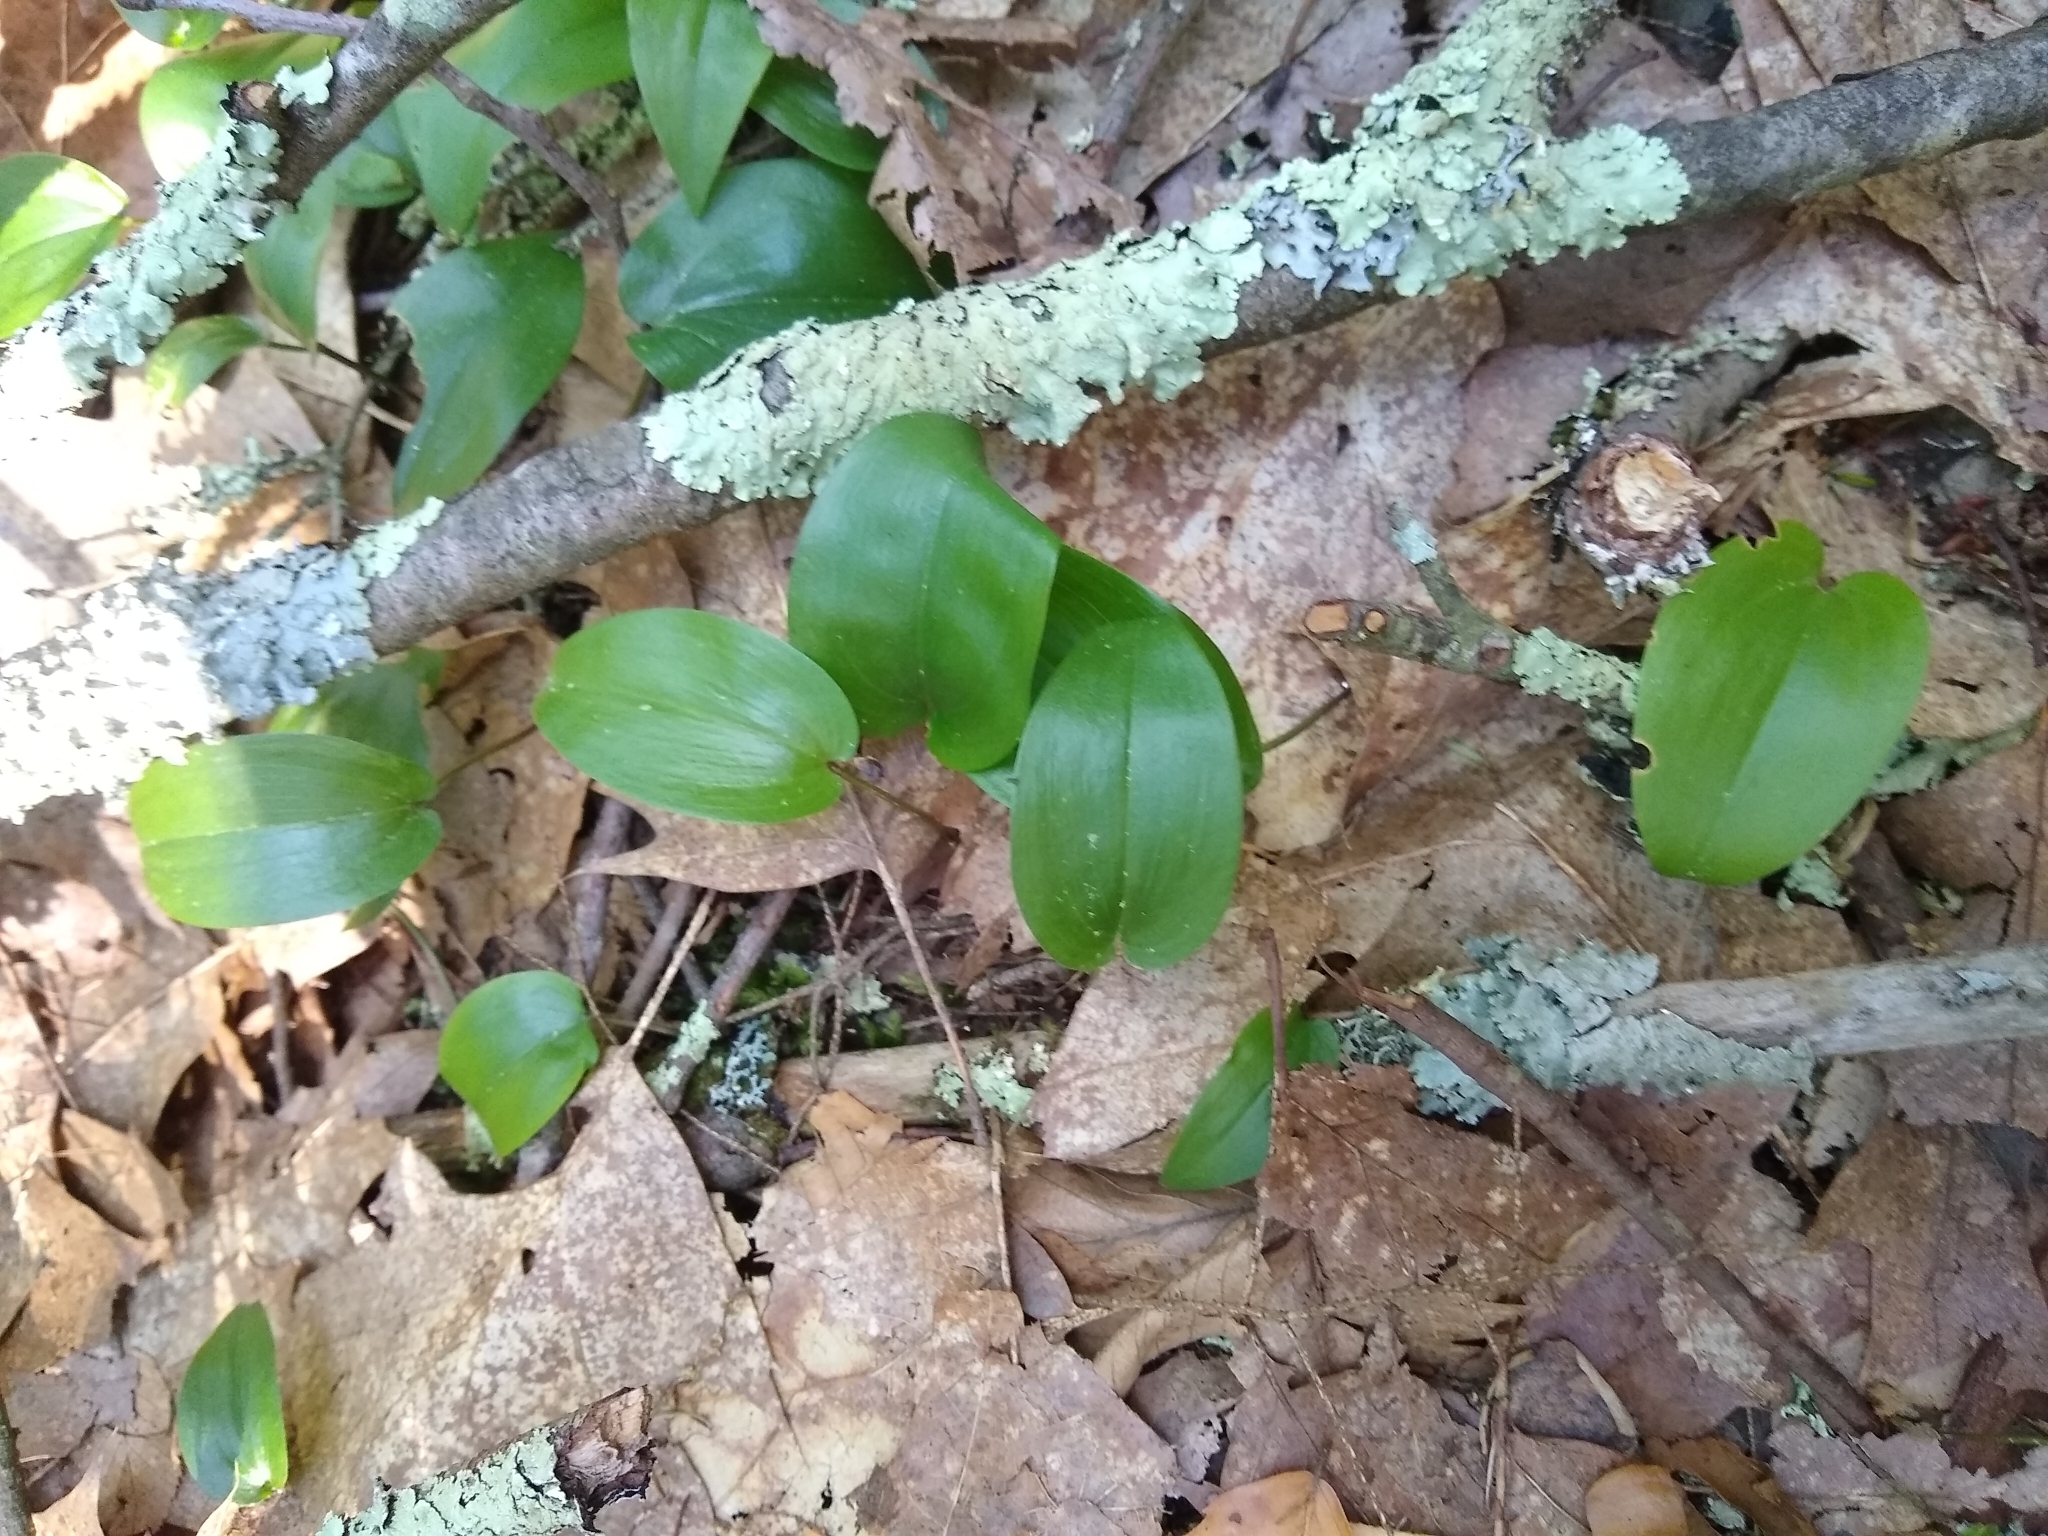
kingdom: Plantae
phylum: Tracheophyta
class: Liliopsida
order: Asparagales
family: Asparagaceae
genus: Maianthemum
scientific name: Maianthemum canadense
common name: False lily-of-the-valley
